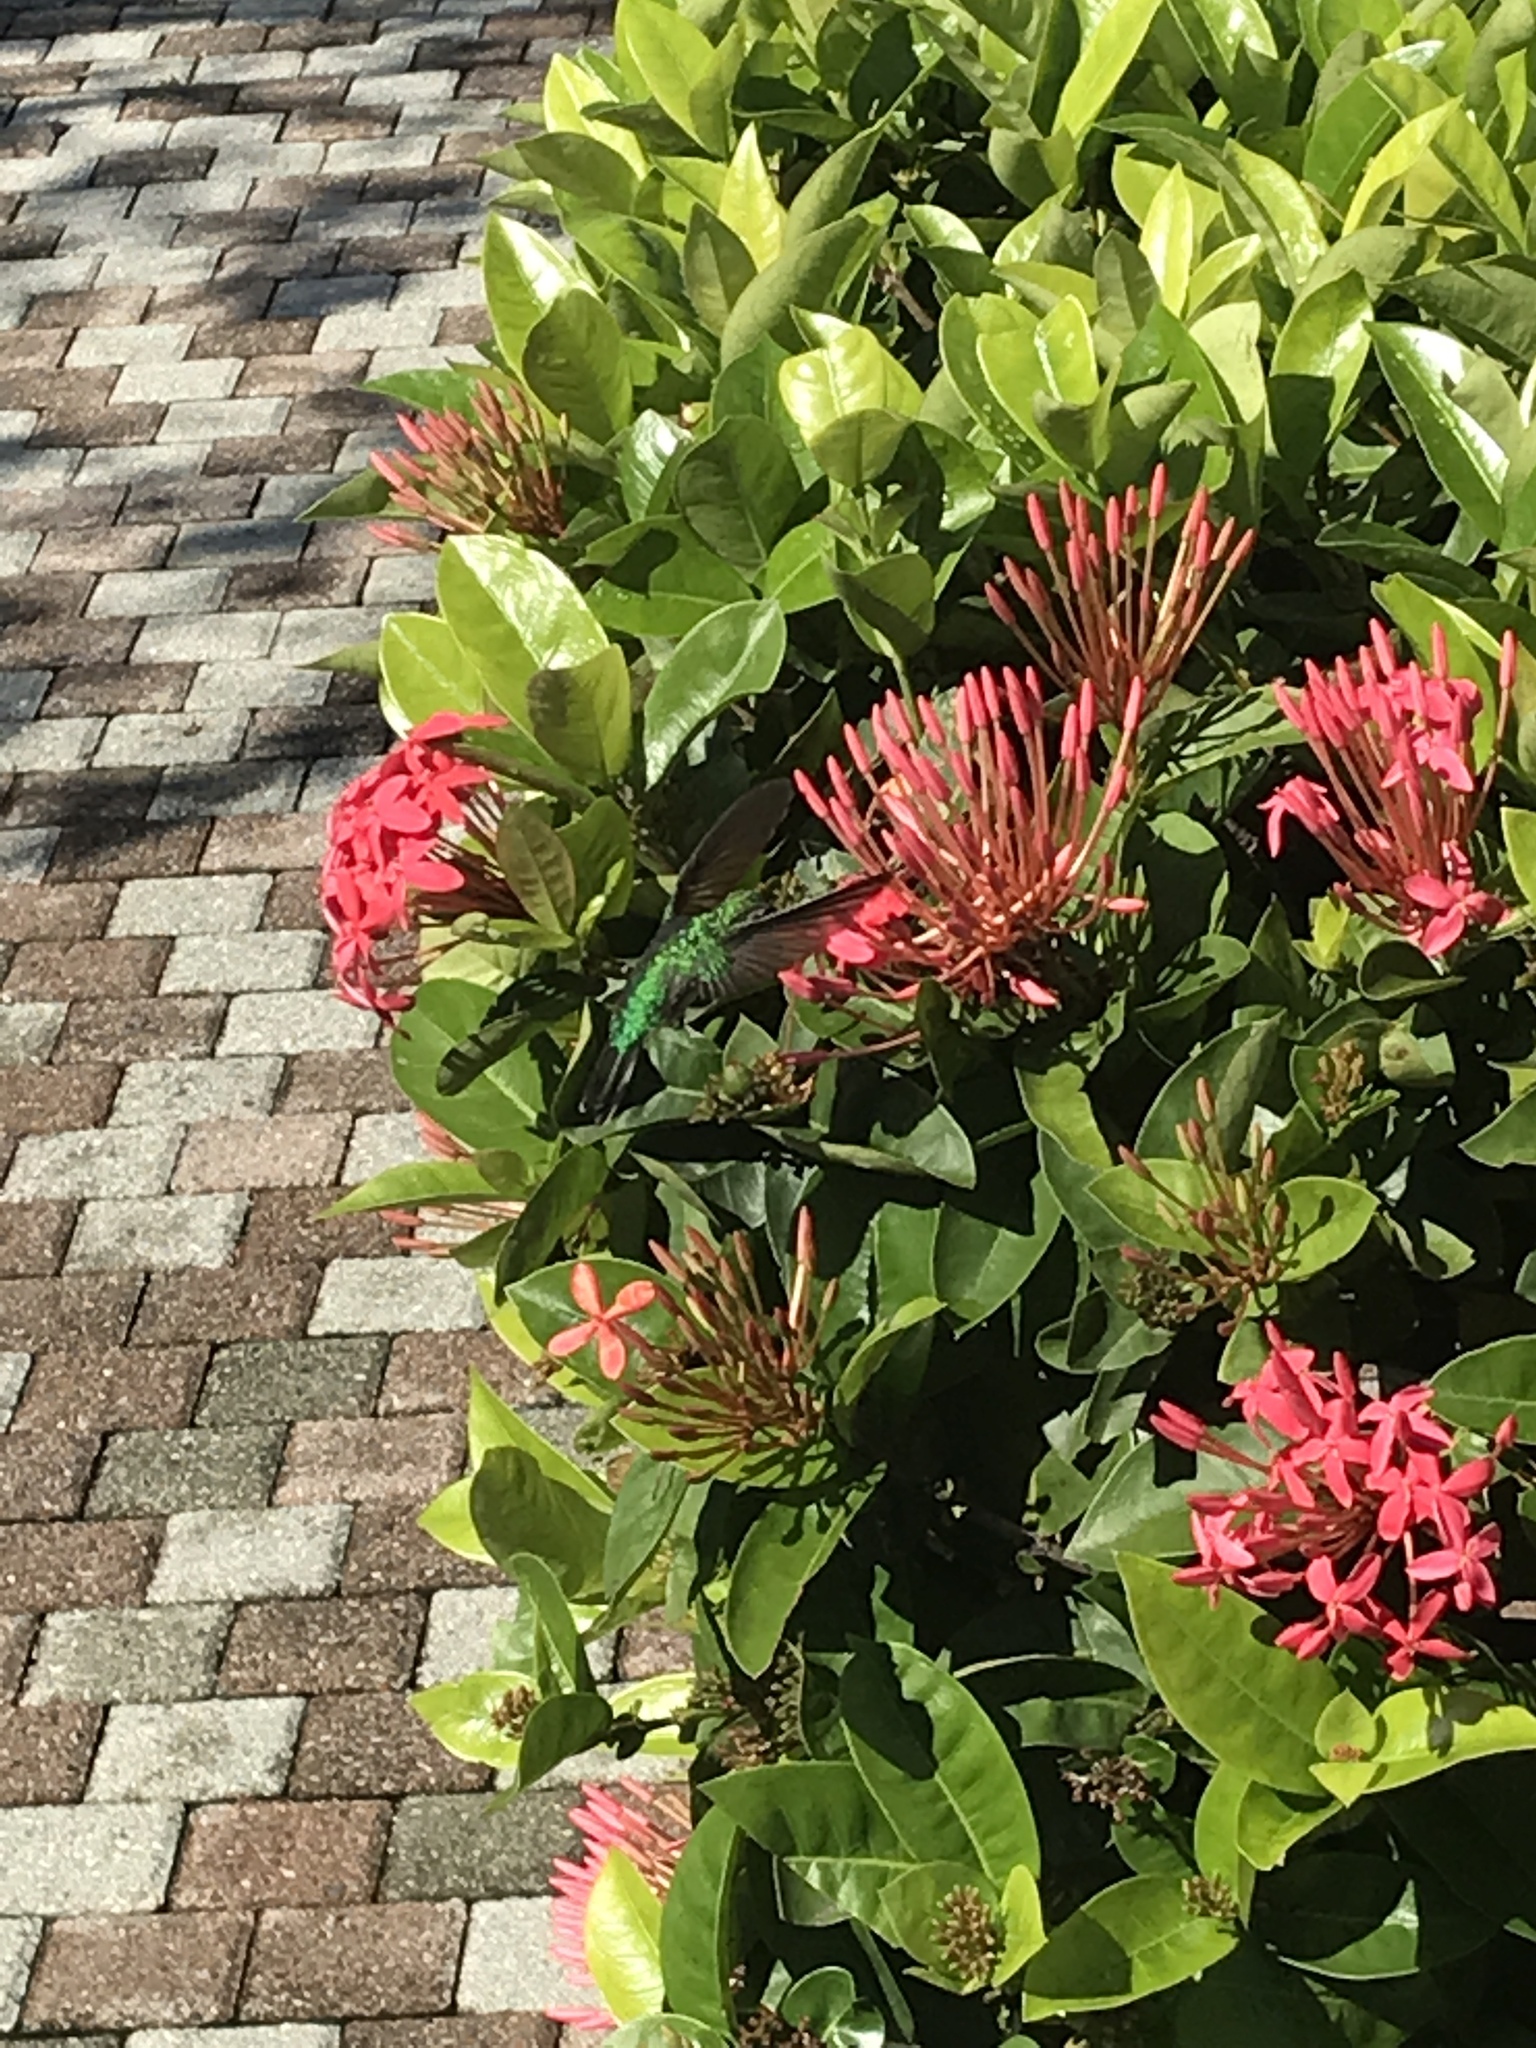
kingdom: Animalia
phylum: Chordata
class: Aves
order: Apodiformes
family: Trochilidae
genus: Cynanthus
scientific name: Cynanthus canivetii
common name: Canivet's emerald
